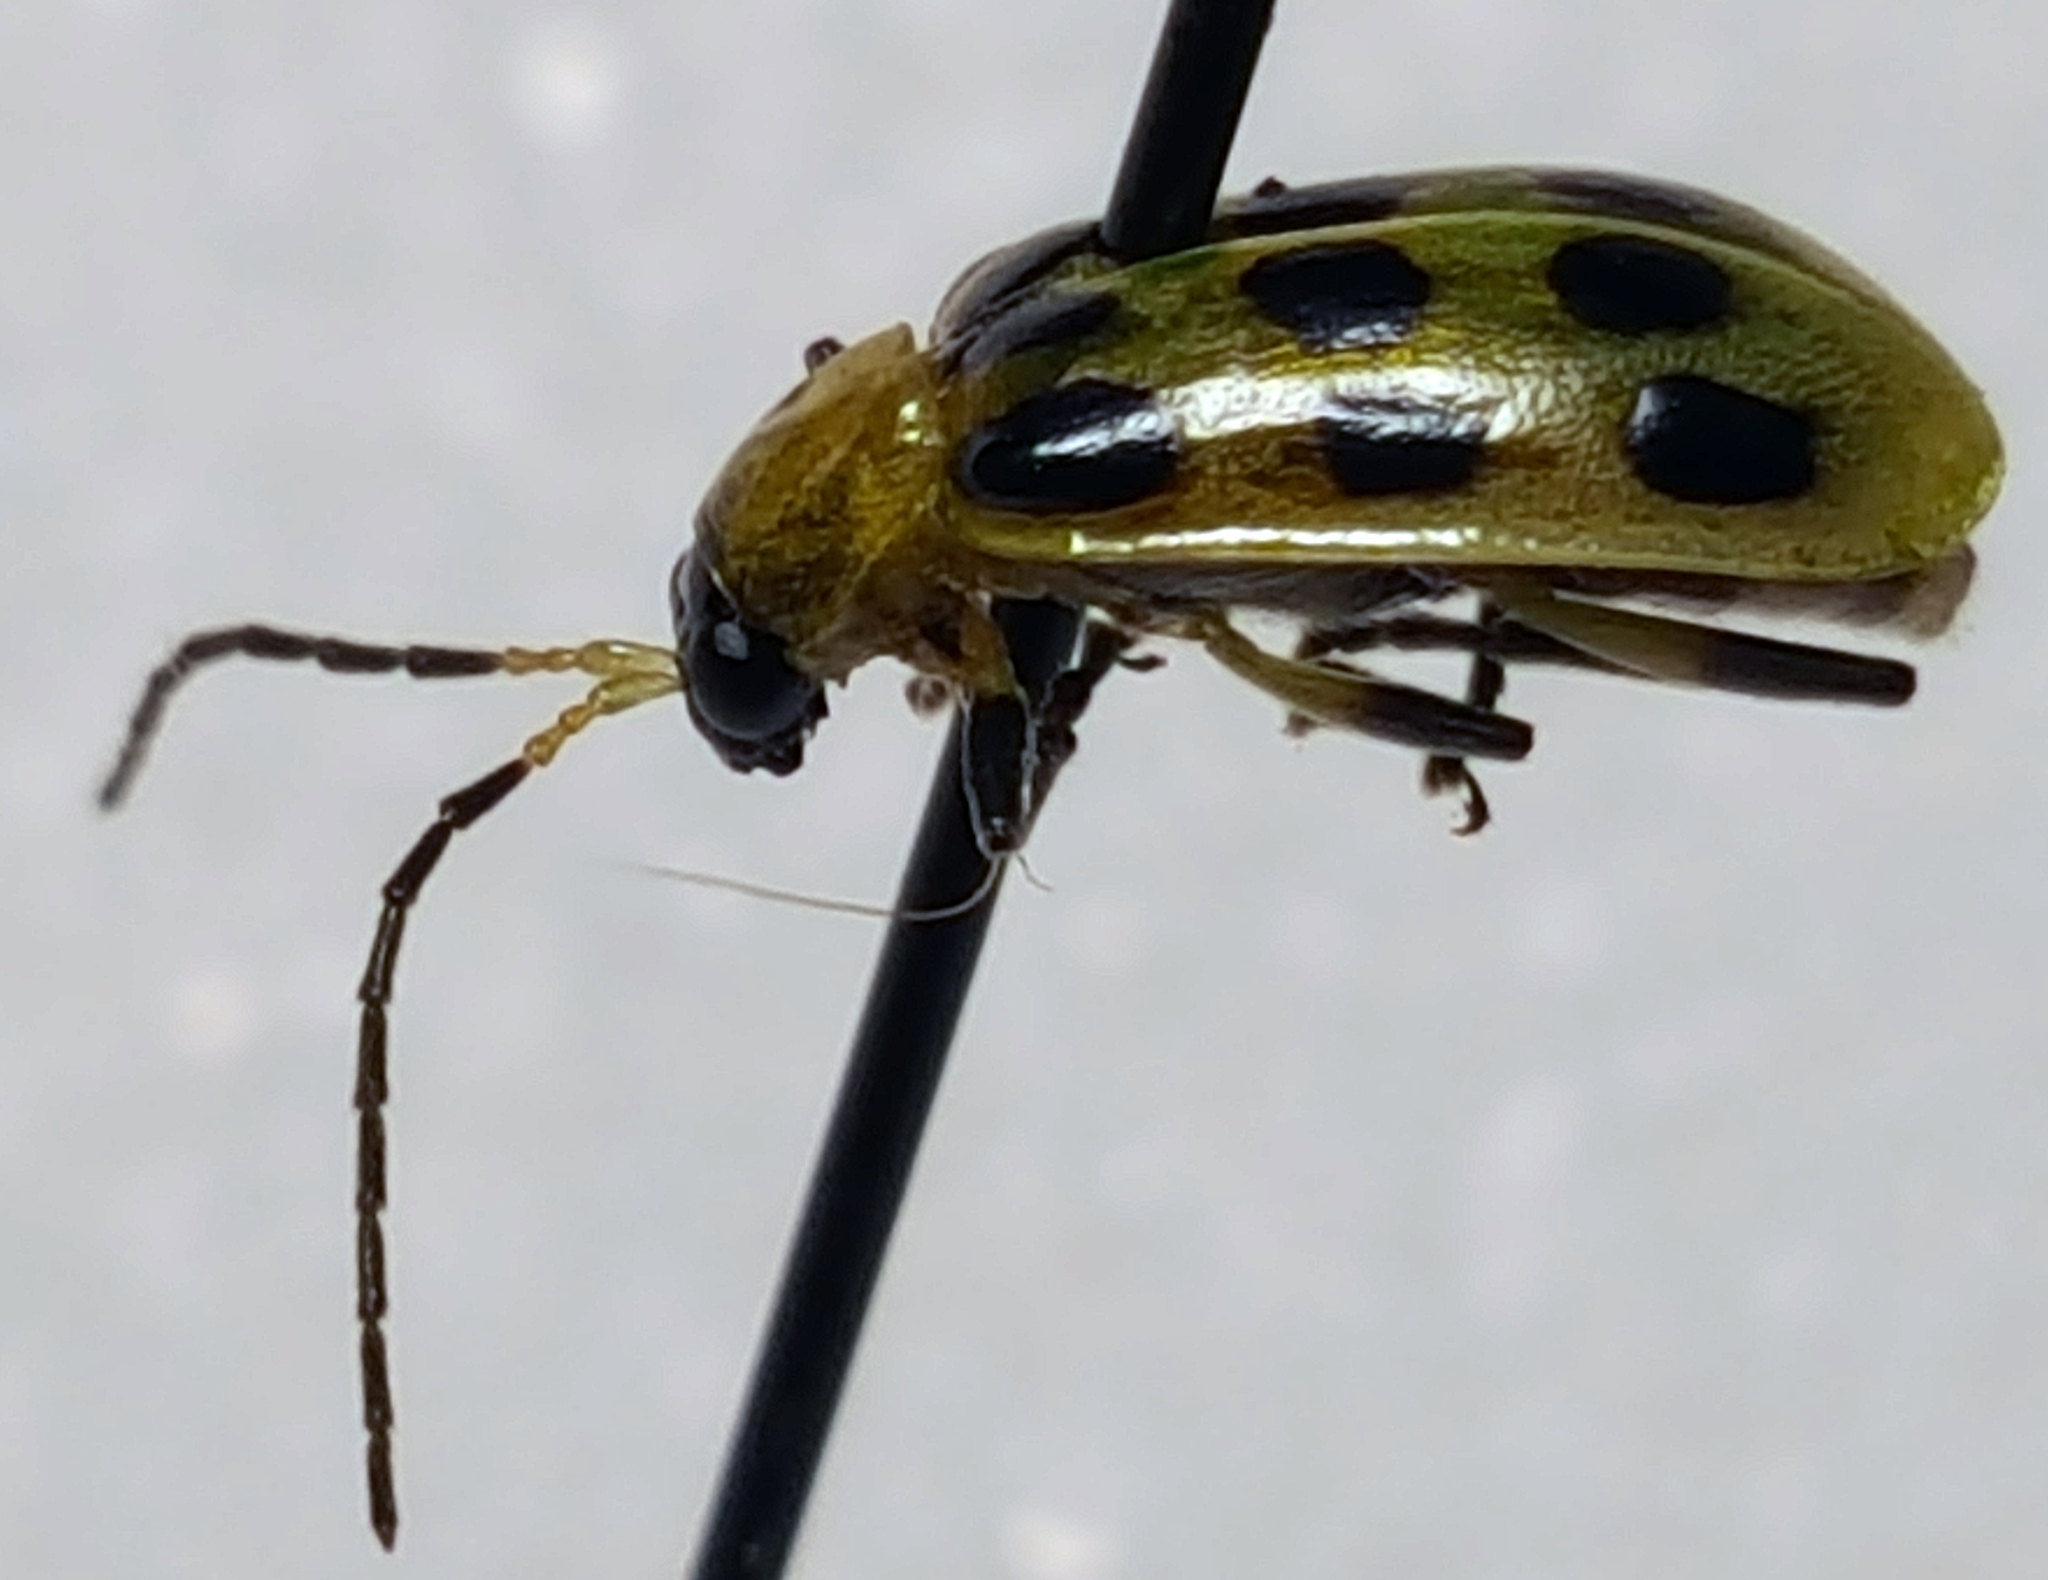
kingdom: Animalia
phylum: Arthropoda
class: Insecta
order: Coleoptera
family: Chrysomelidae
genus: Diabrotica
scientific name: Diabrotica undecimpunctata
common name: Spotted cucumber beetle
